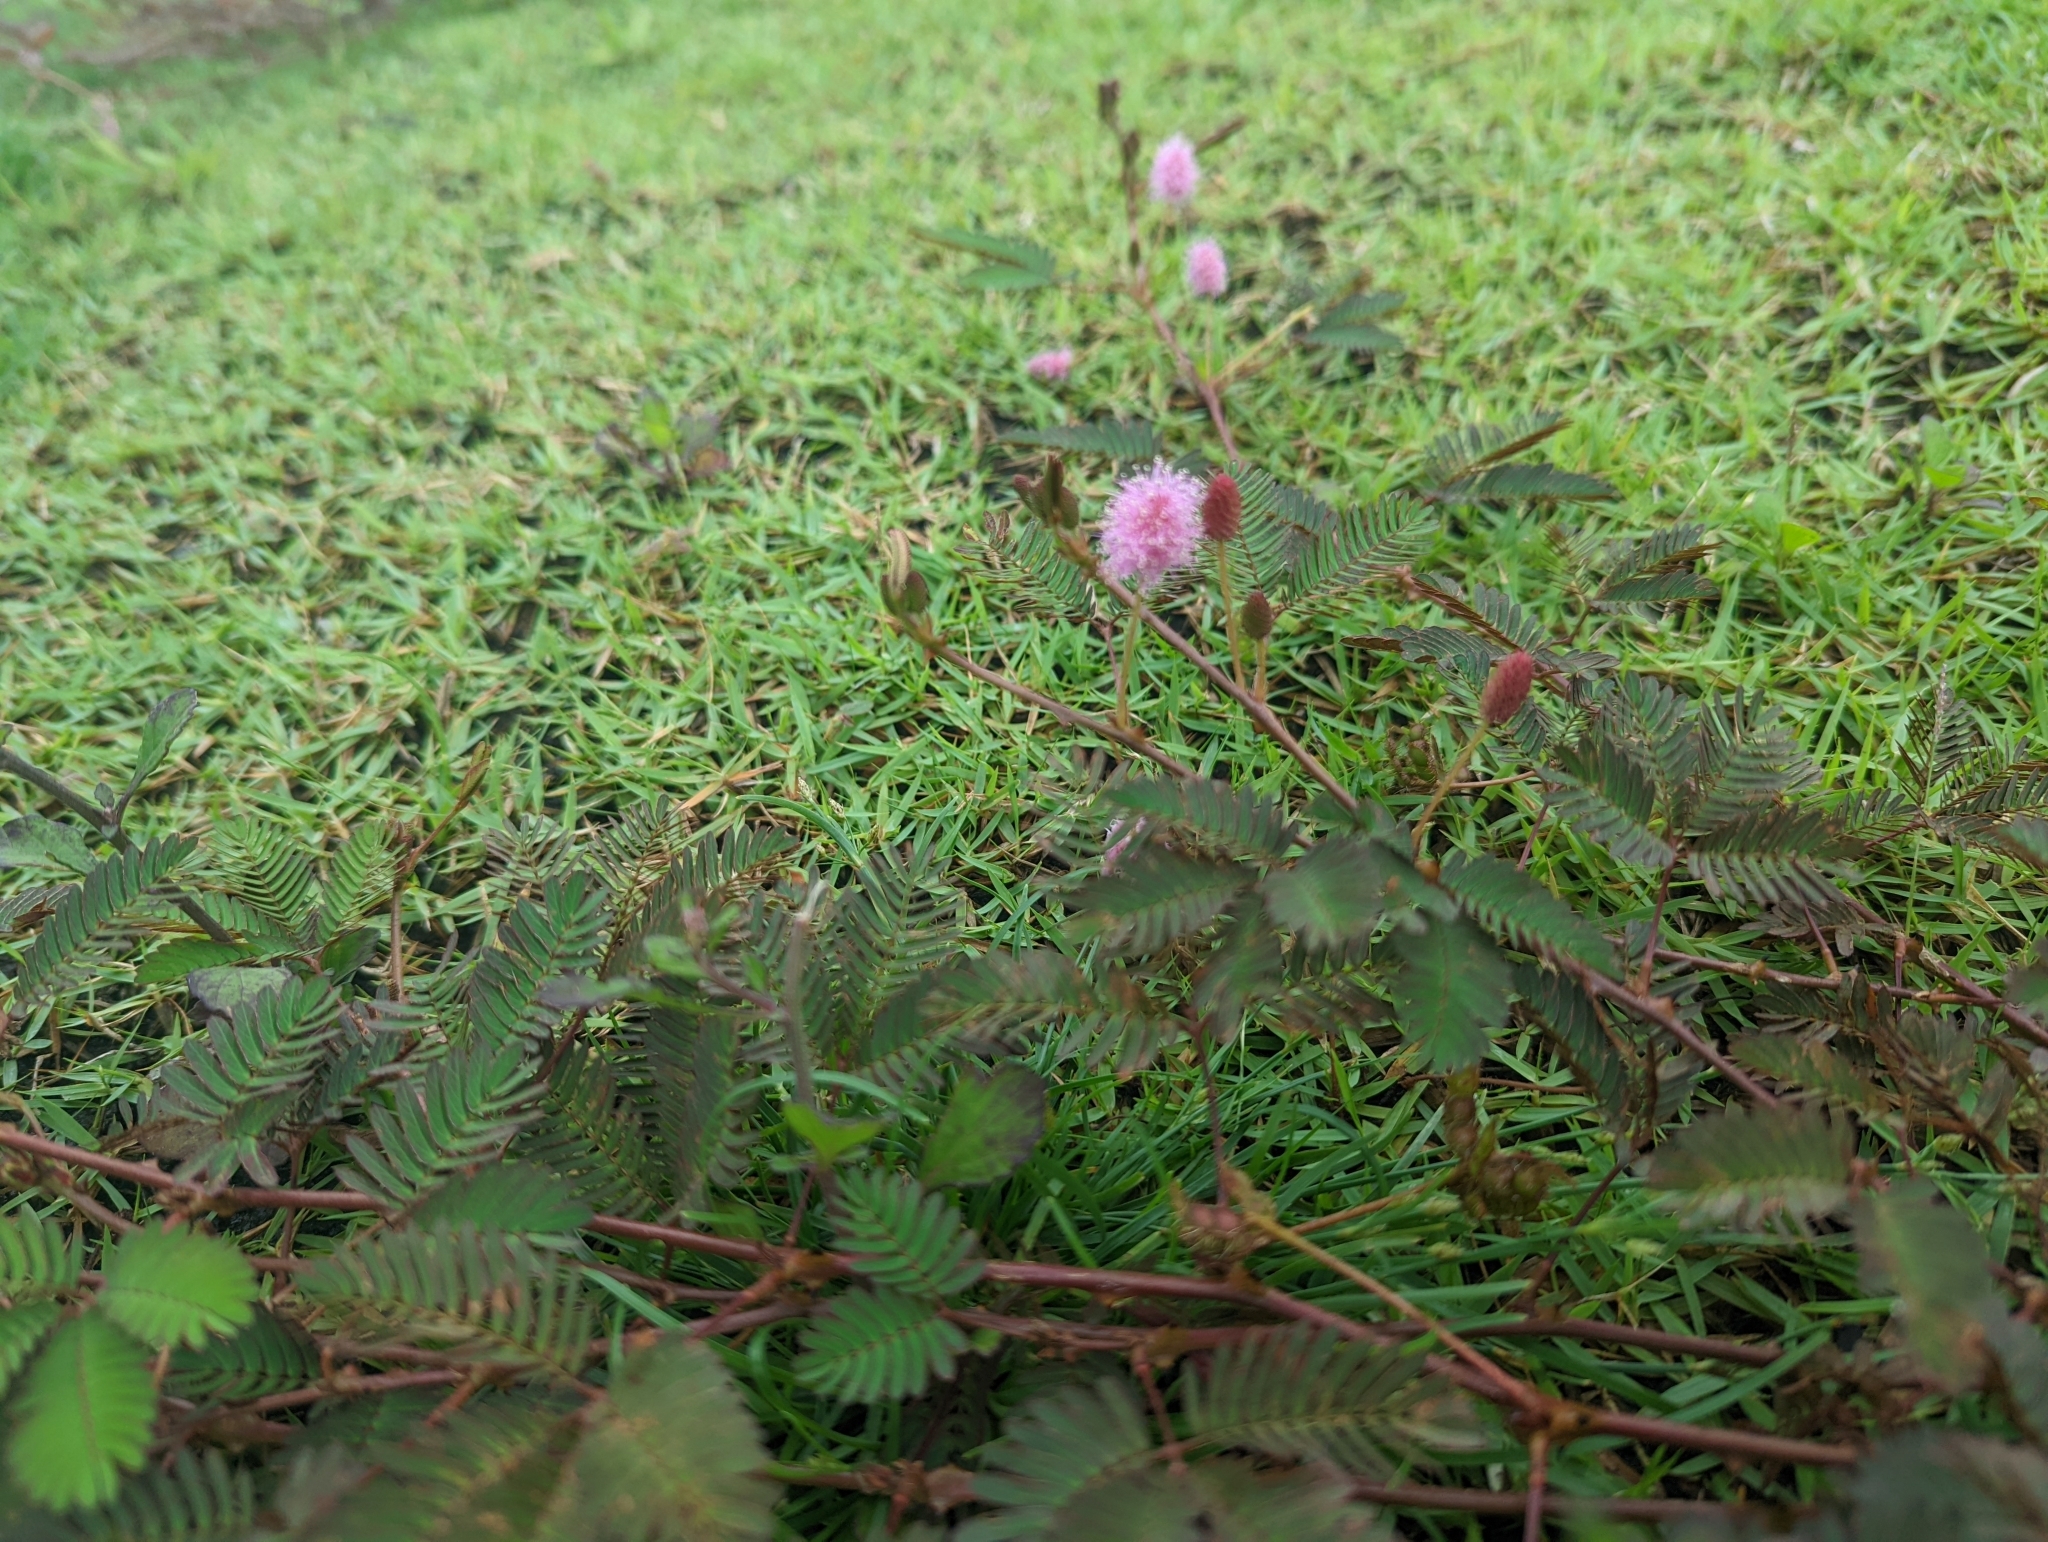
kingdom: Plantae
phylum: Tracheophyta
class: Magnoliopsida
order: Fabales
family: Fabaceae
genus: Mimosa
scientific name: Mimosa pudica
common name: Sensitive plant
